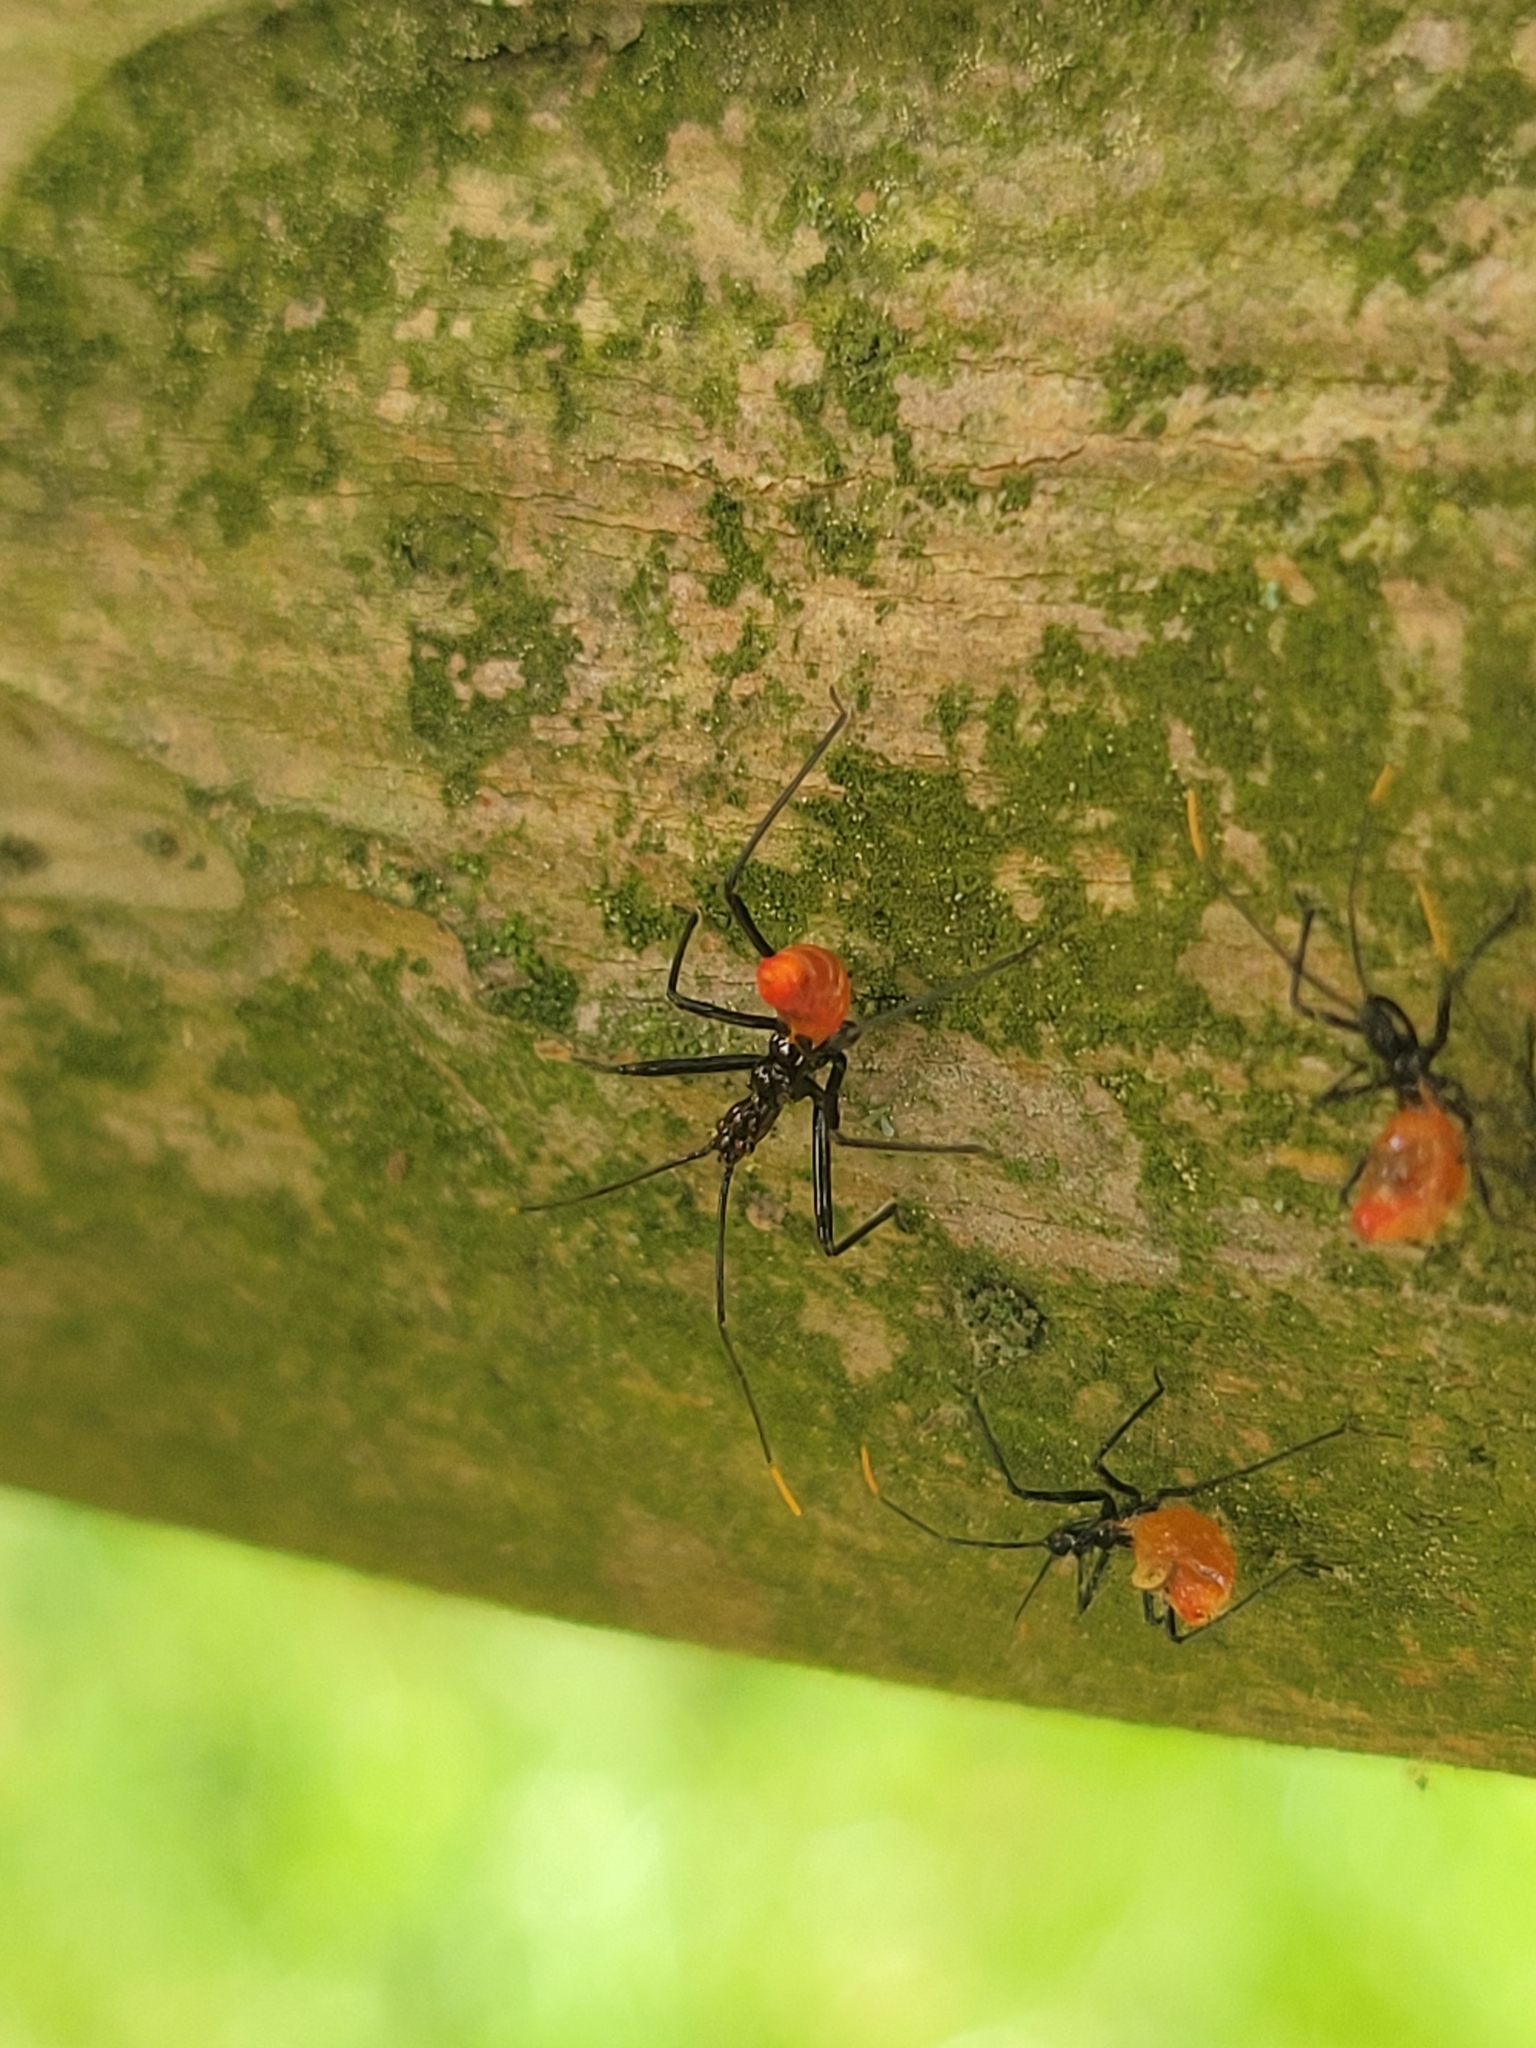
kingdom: Animalia
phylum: Arthropoda
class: Insecta
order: Hemiptera
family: Reduviidae
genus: Arilus
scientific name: Arilus cristatus
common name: North american wheel bug
